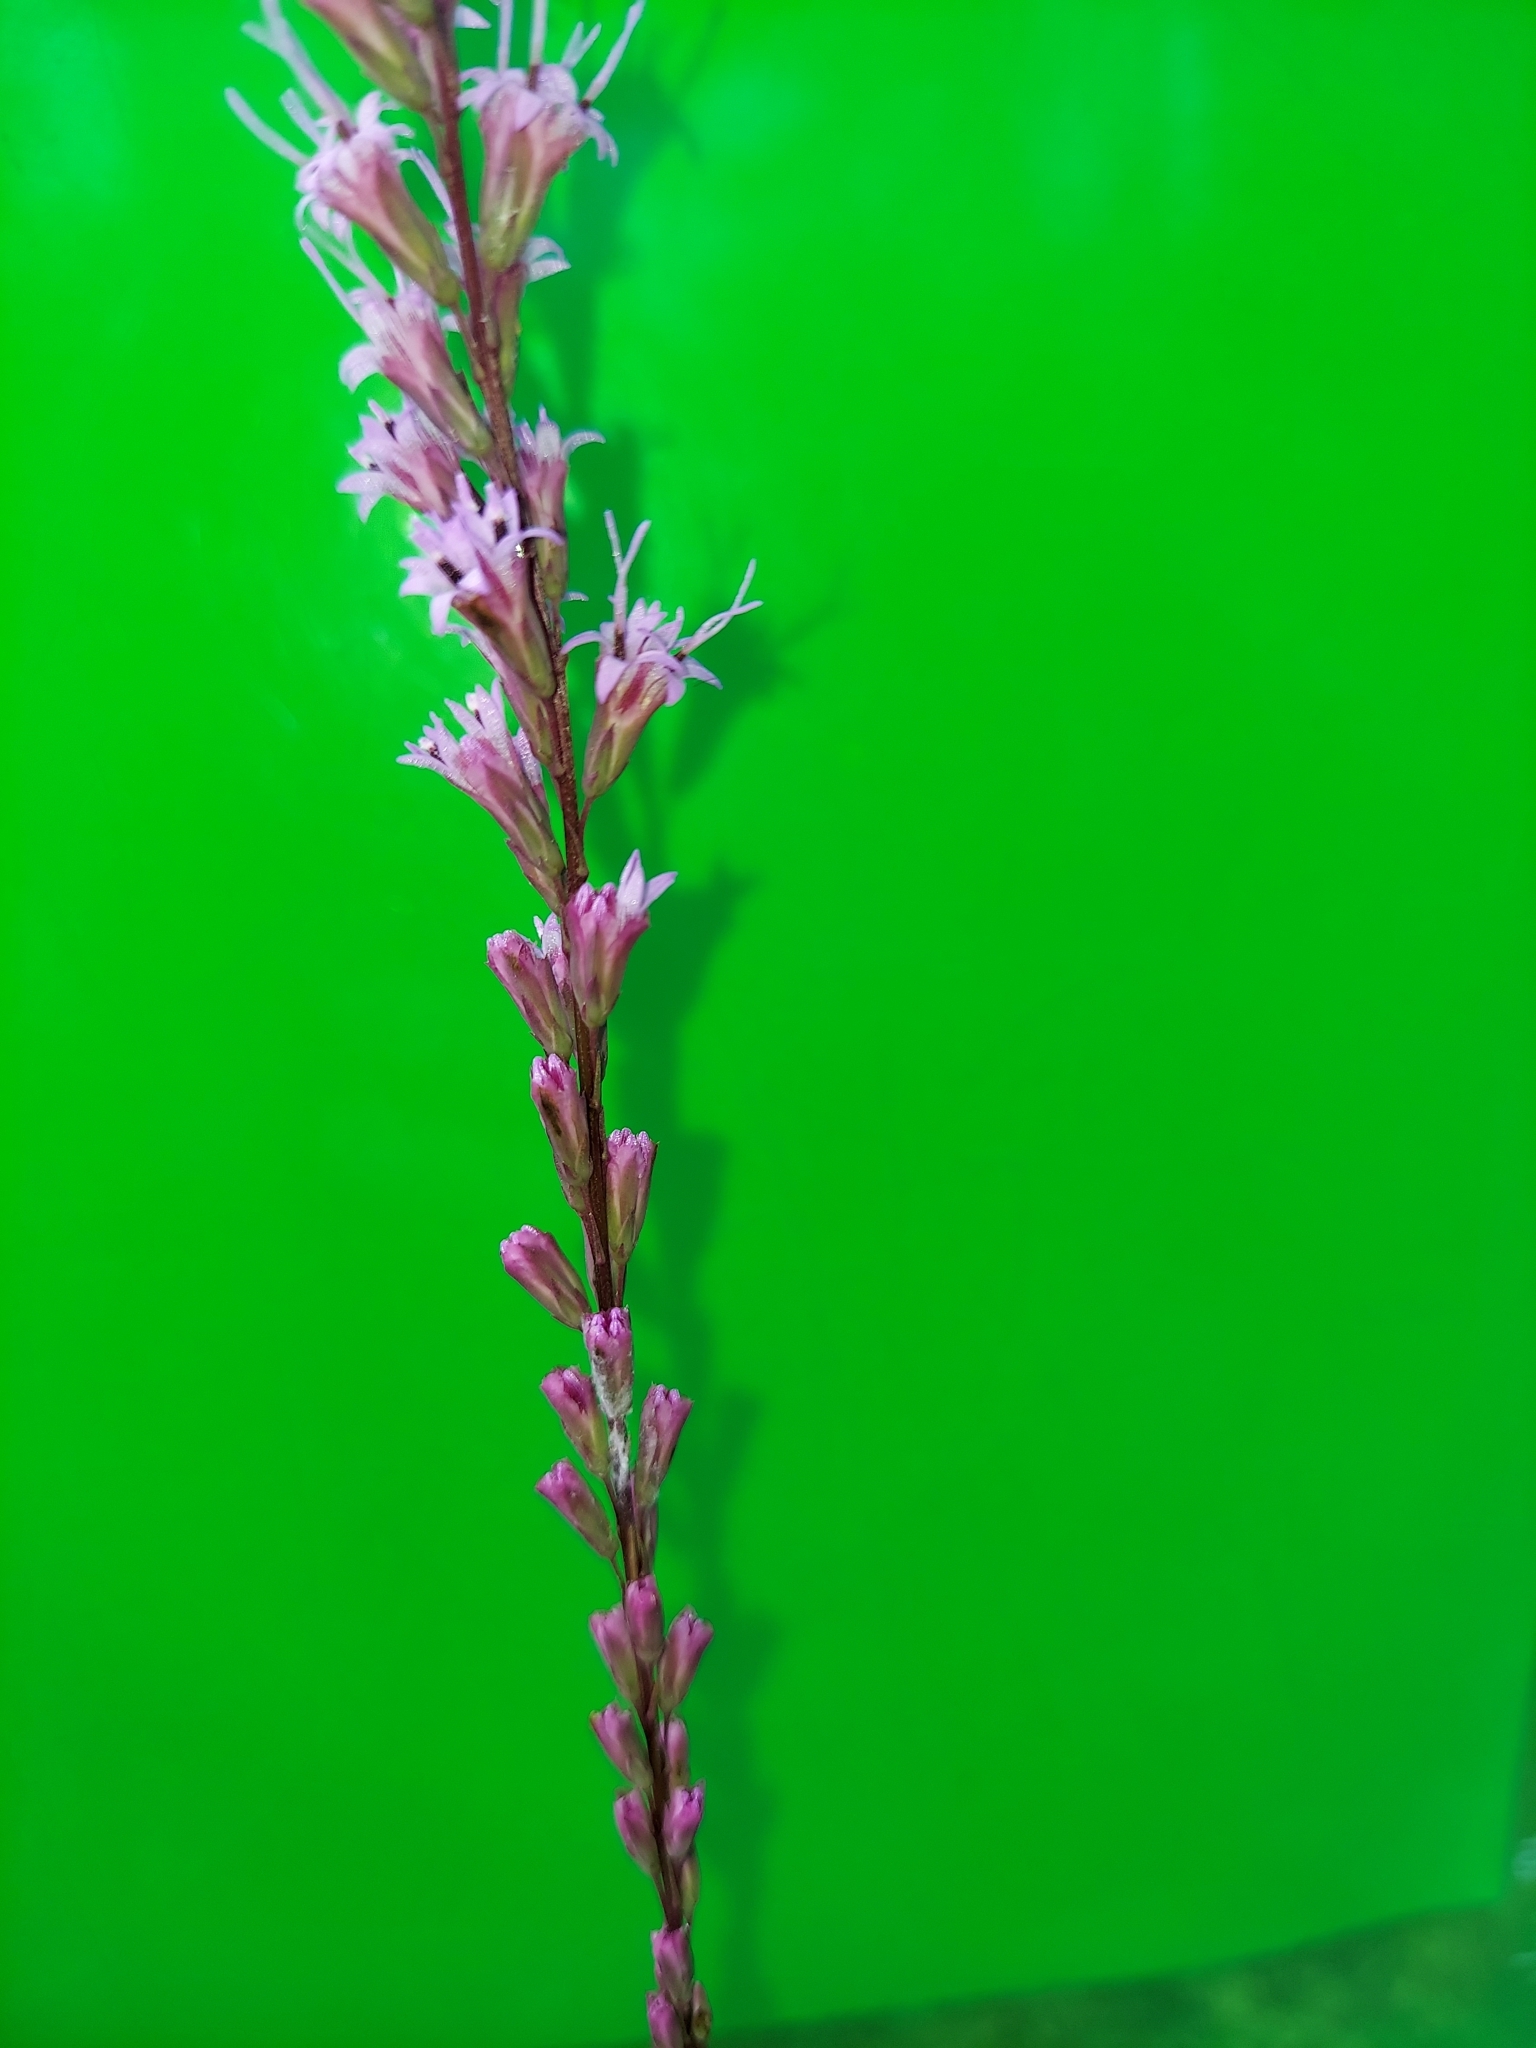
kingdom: Plantae
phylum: Tracheophyta
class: Magnoliopsida
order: Asterales
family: Asteraceae
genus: Liatris
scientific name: Liatris tenuifolia
